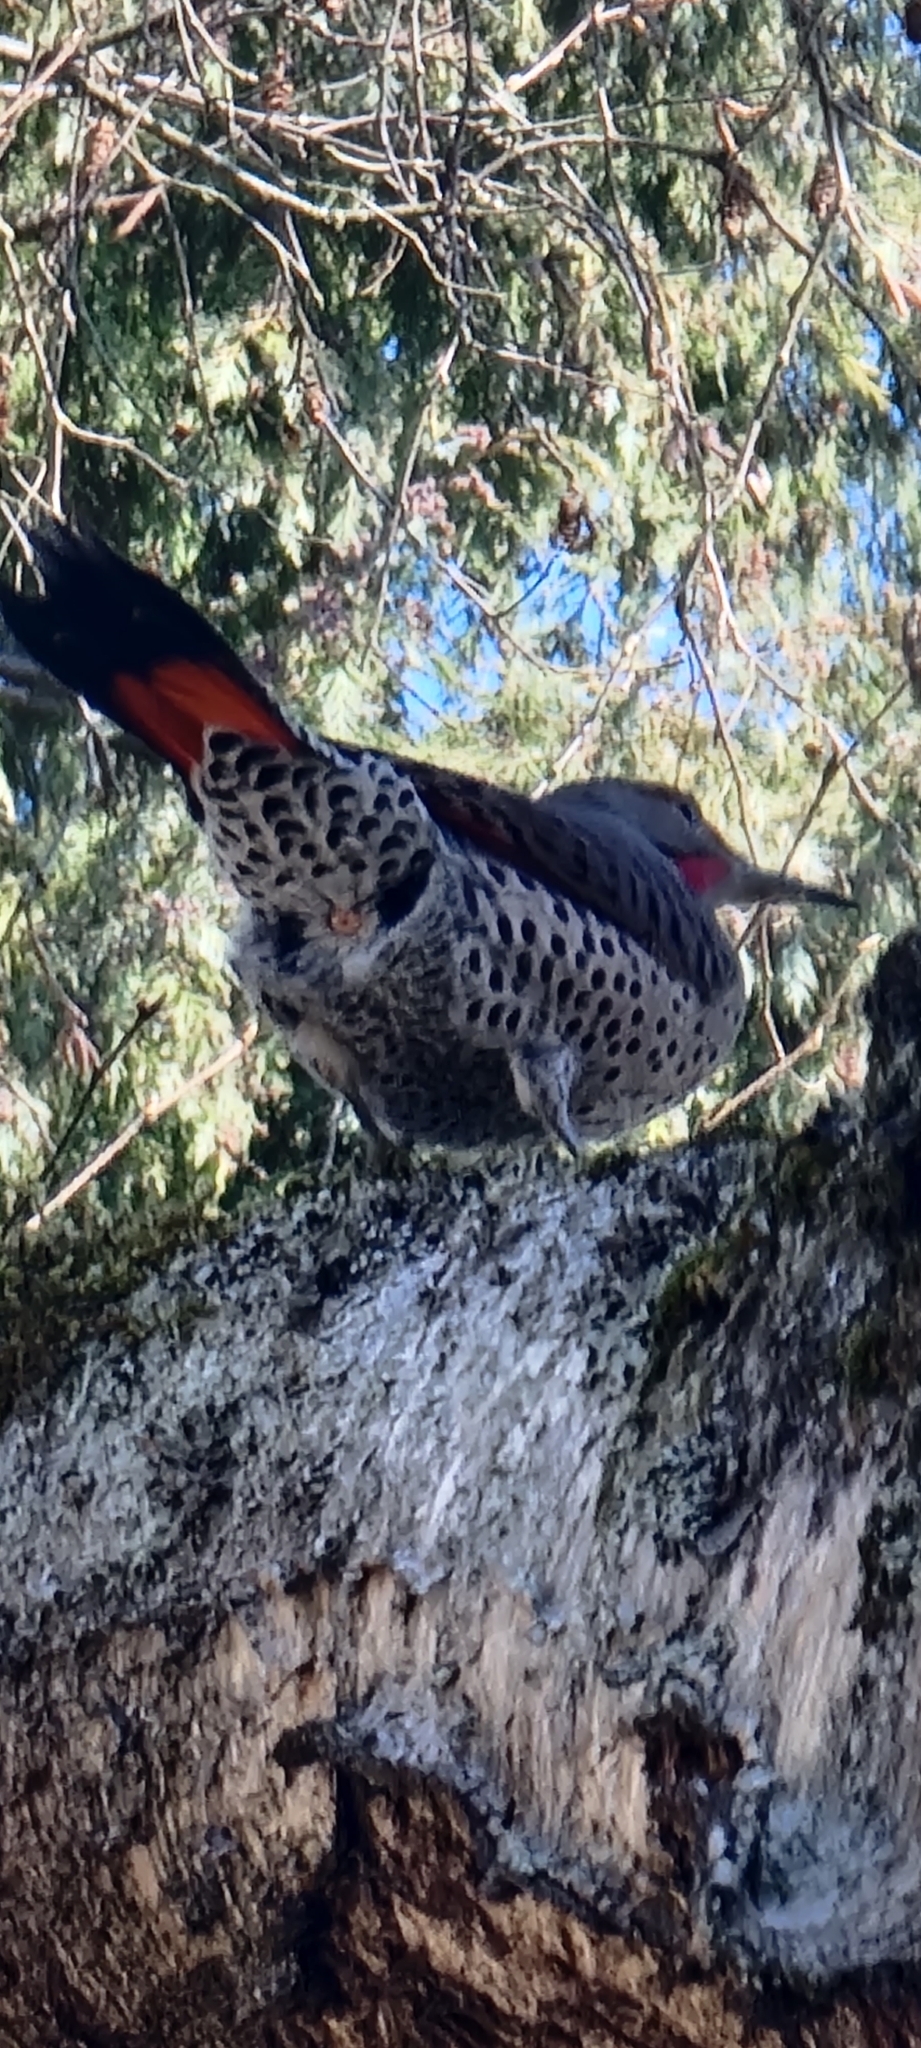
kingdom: Animalia
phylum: Chordata
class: Aves
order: Piciformes
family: Picidae
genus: Colaptes
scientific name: Colaptes auratus
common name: Northern flicker
